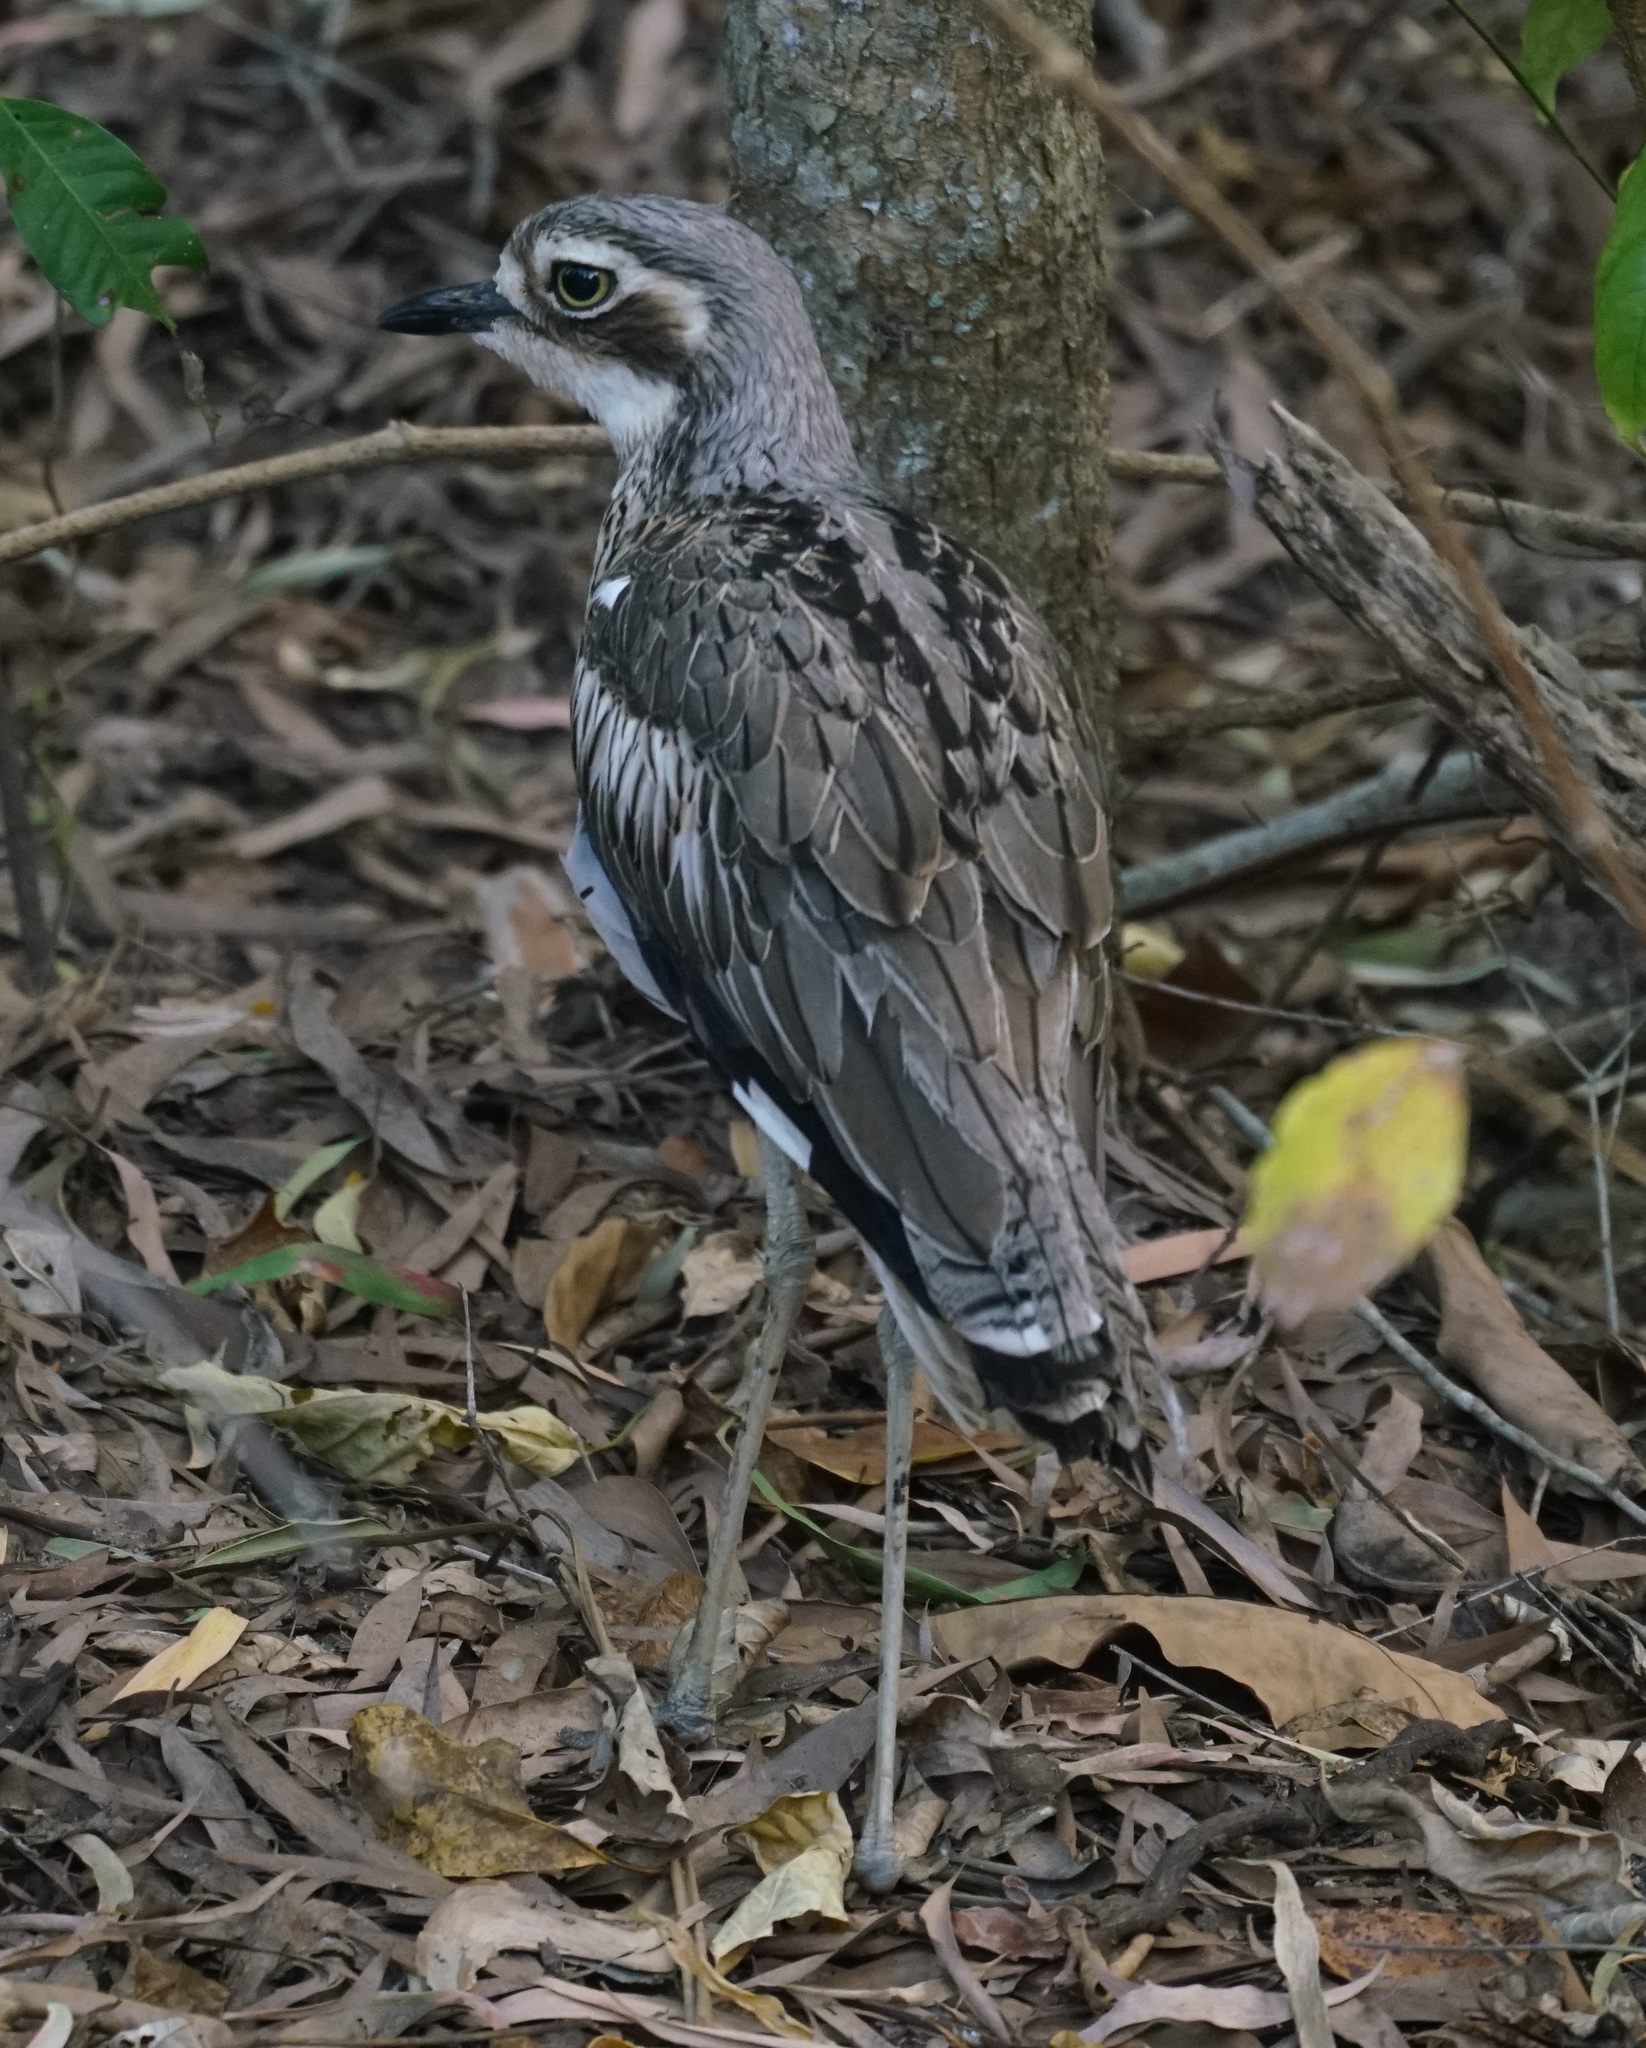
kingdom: Animalia
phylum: Chordata
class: Aves
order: Charadriiformes
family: Burhinidae
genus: Burhinus
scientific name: Burhinus grallarius
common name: Bush stone-curlew
